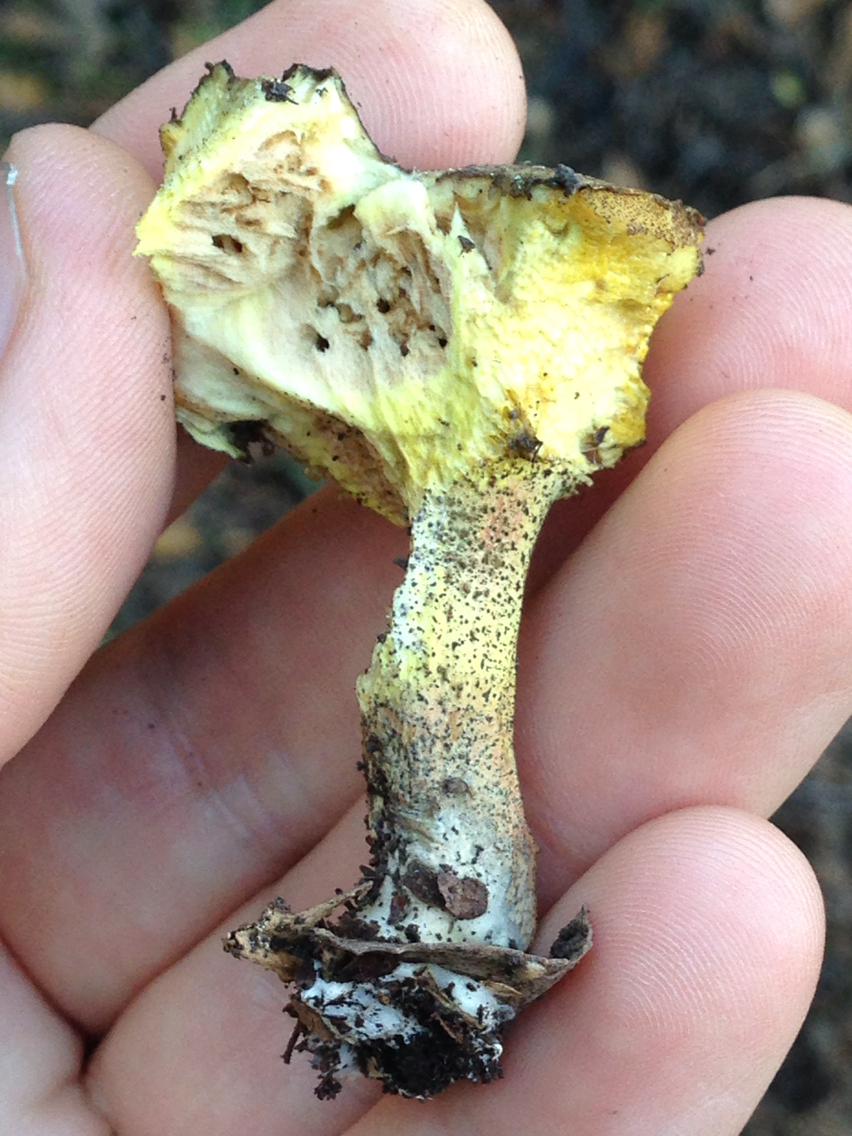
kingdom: Fungi
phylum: Basidiomycota
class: Agaricomycetes
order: Boletales
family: Suillaceae
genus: Suillus
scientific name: Suillus fuscotomentosus
